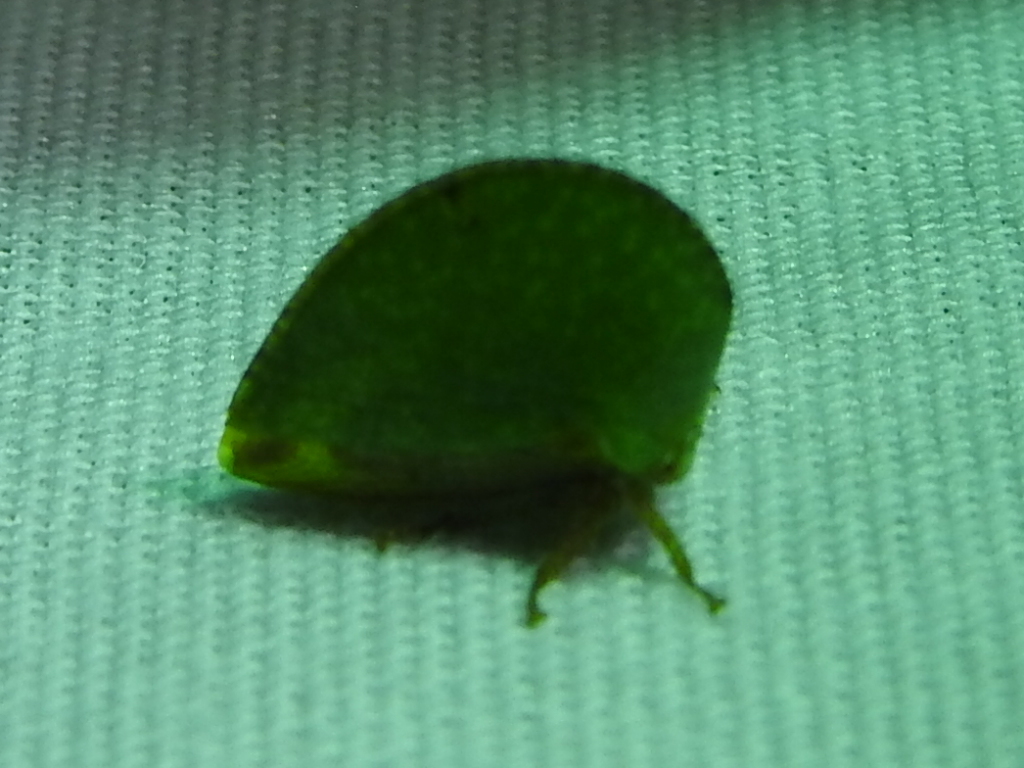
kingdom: Animalia
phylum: Arthropoda
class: Insecta
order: Hemiptera
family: Membracidae
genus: Archasia
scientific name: Archasia auriculata
